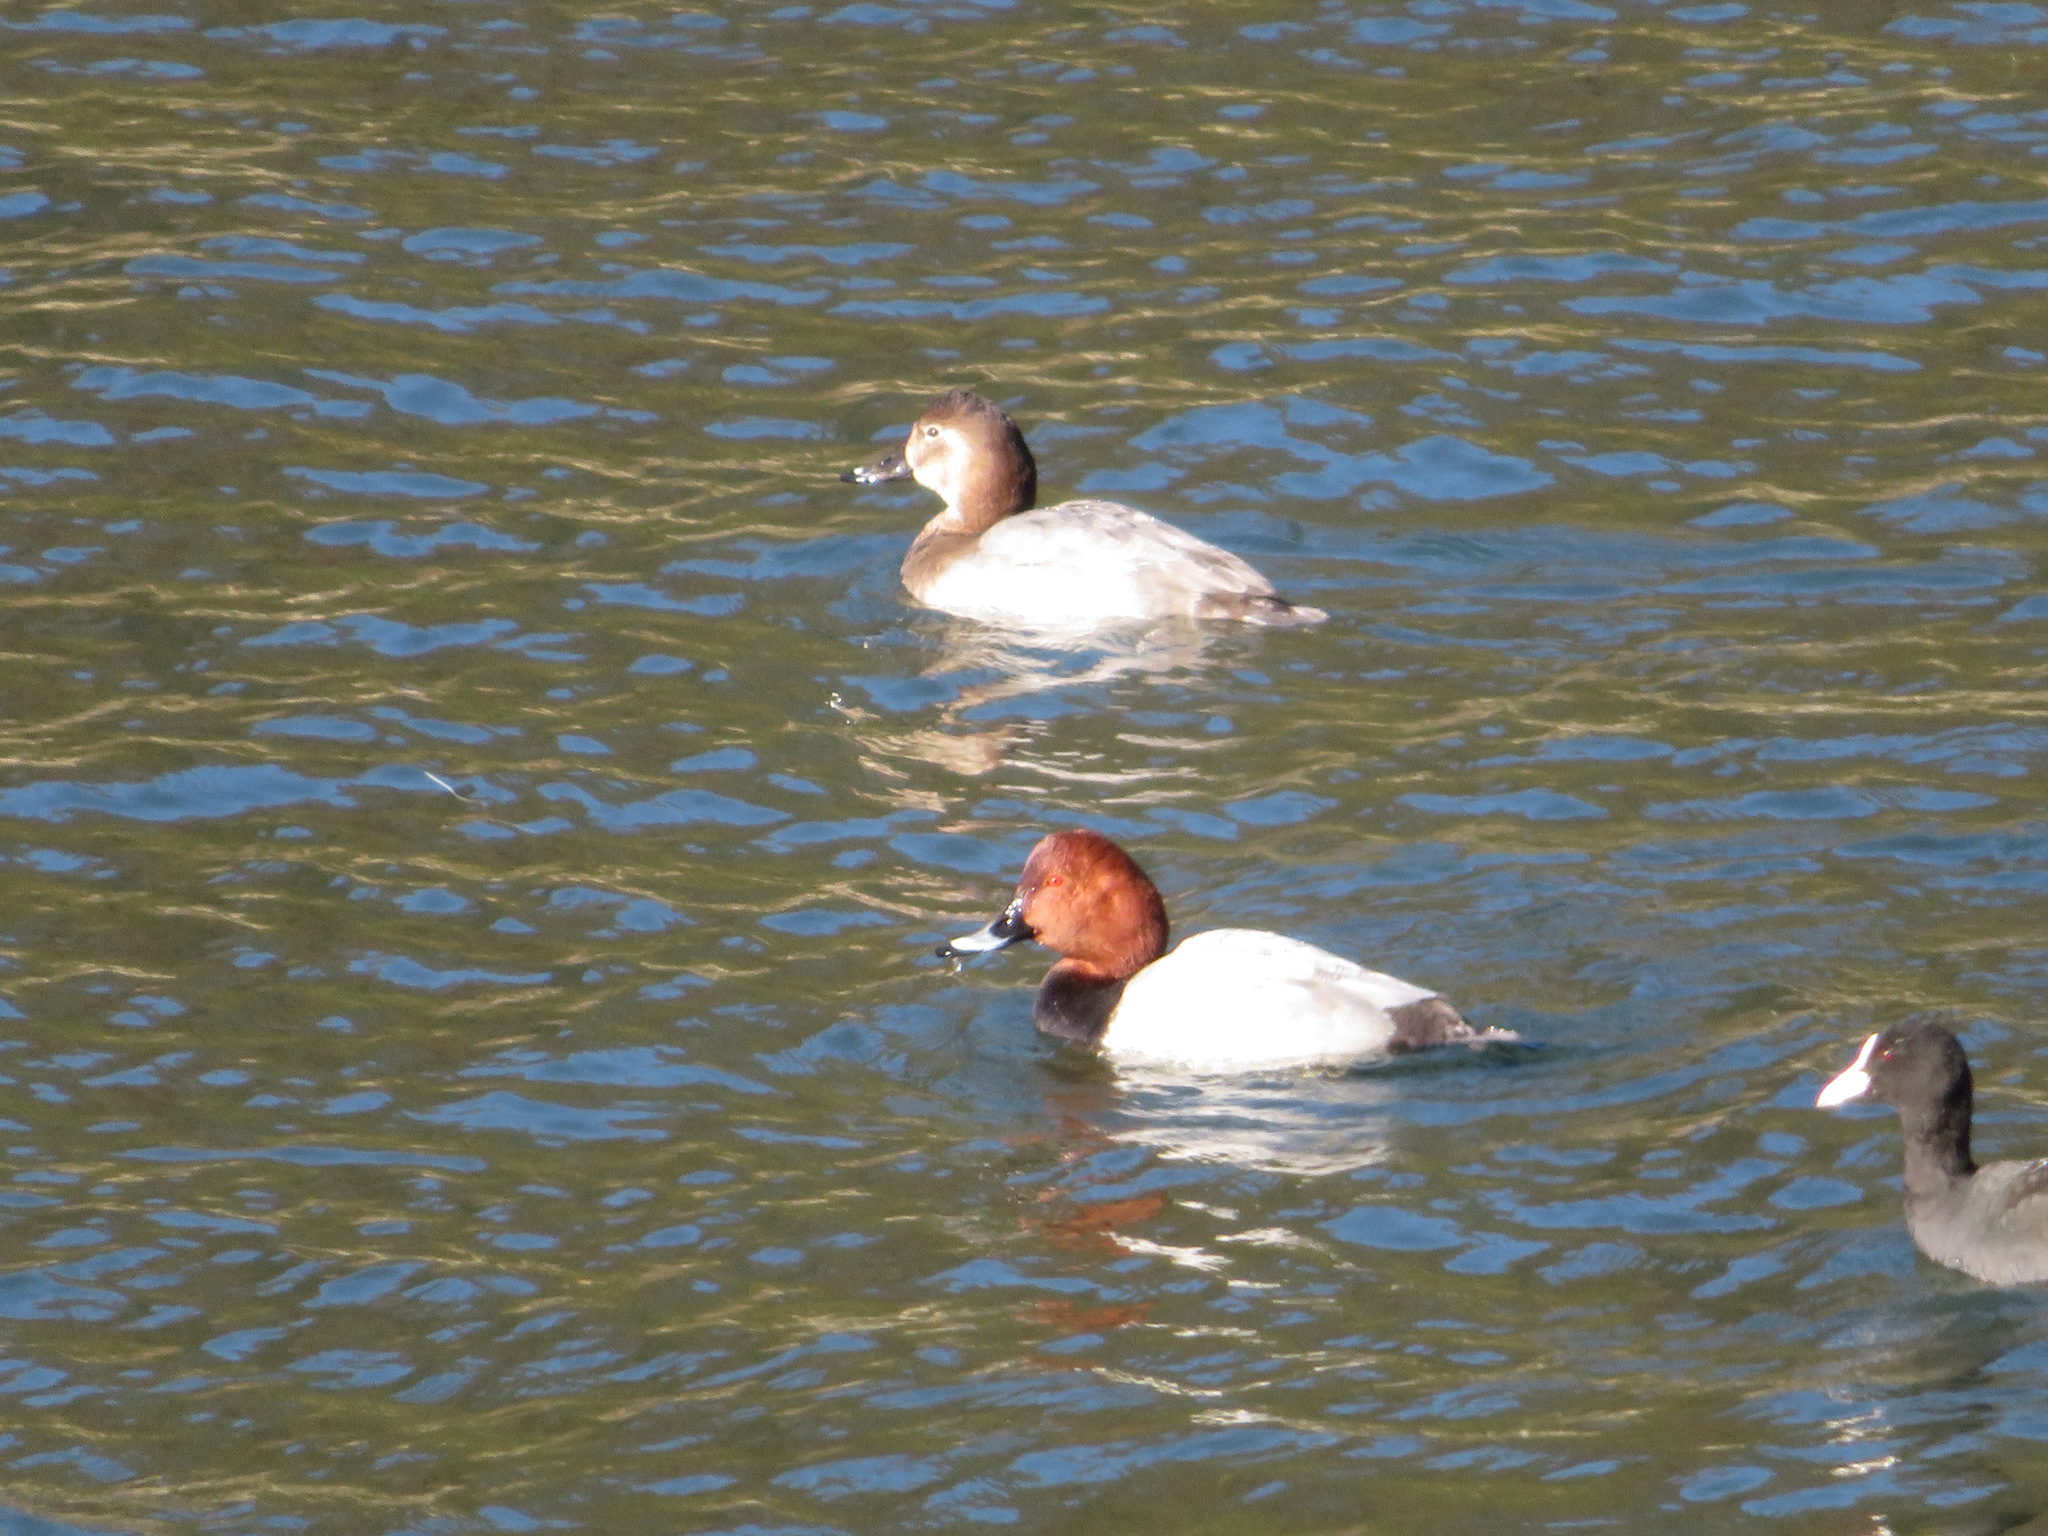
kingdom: Animalia
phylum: Chordata
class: Aves
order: Anseriformes
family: Anatidae
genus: Aythya
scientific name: Aythya ferina
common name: Common pochard
